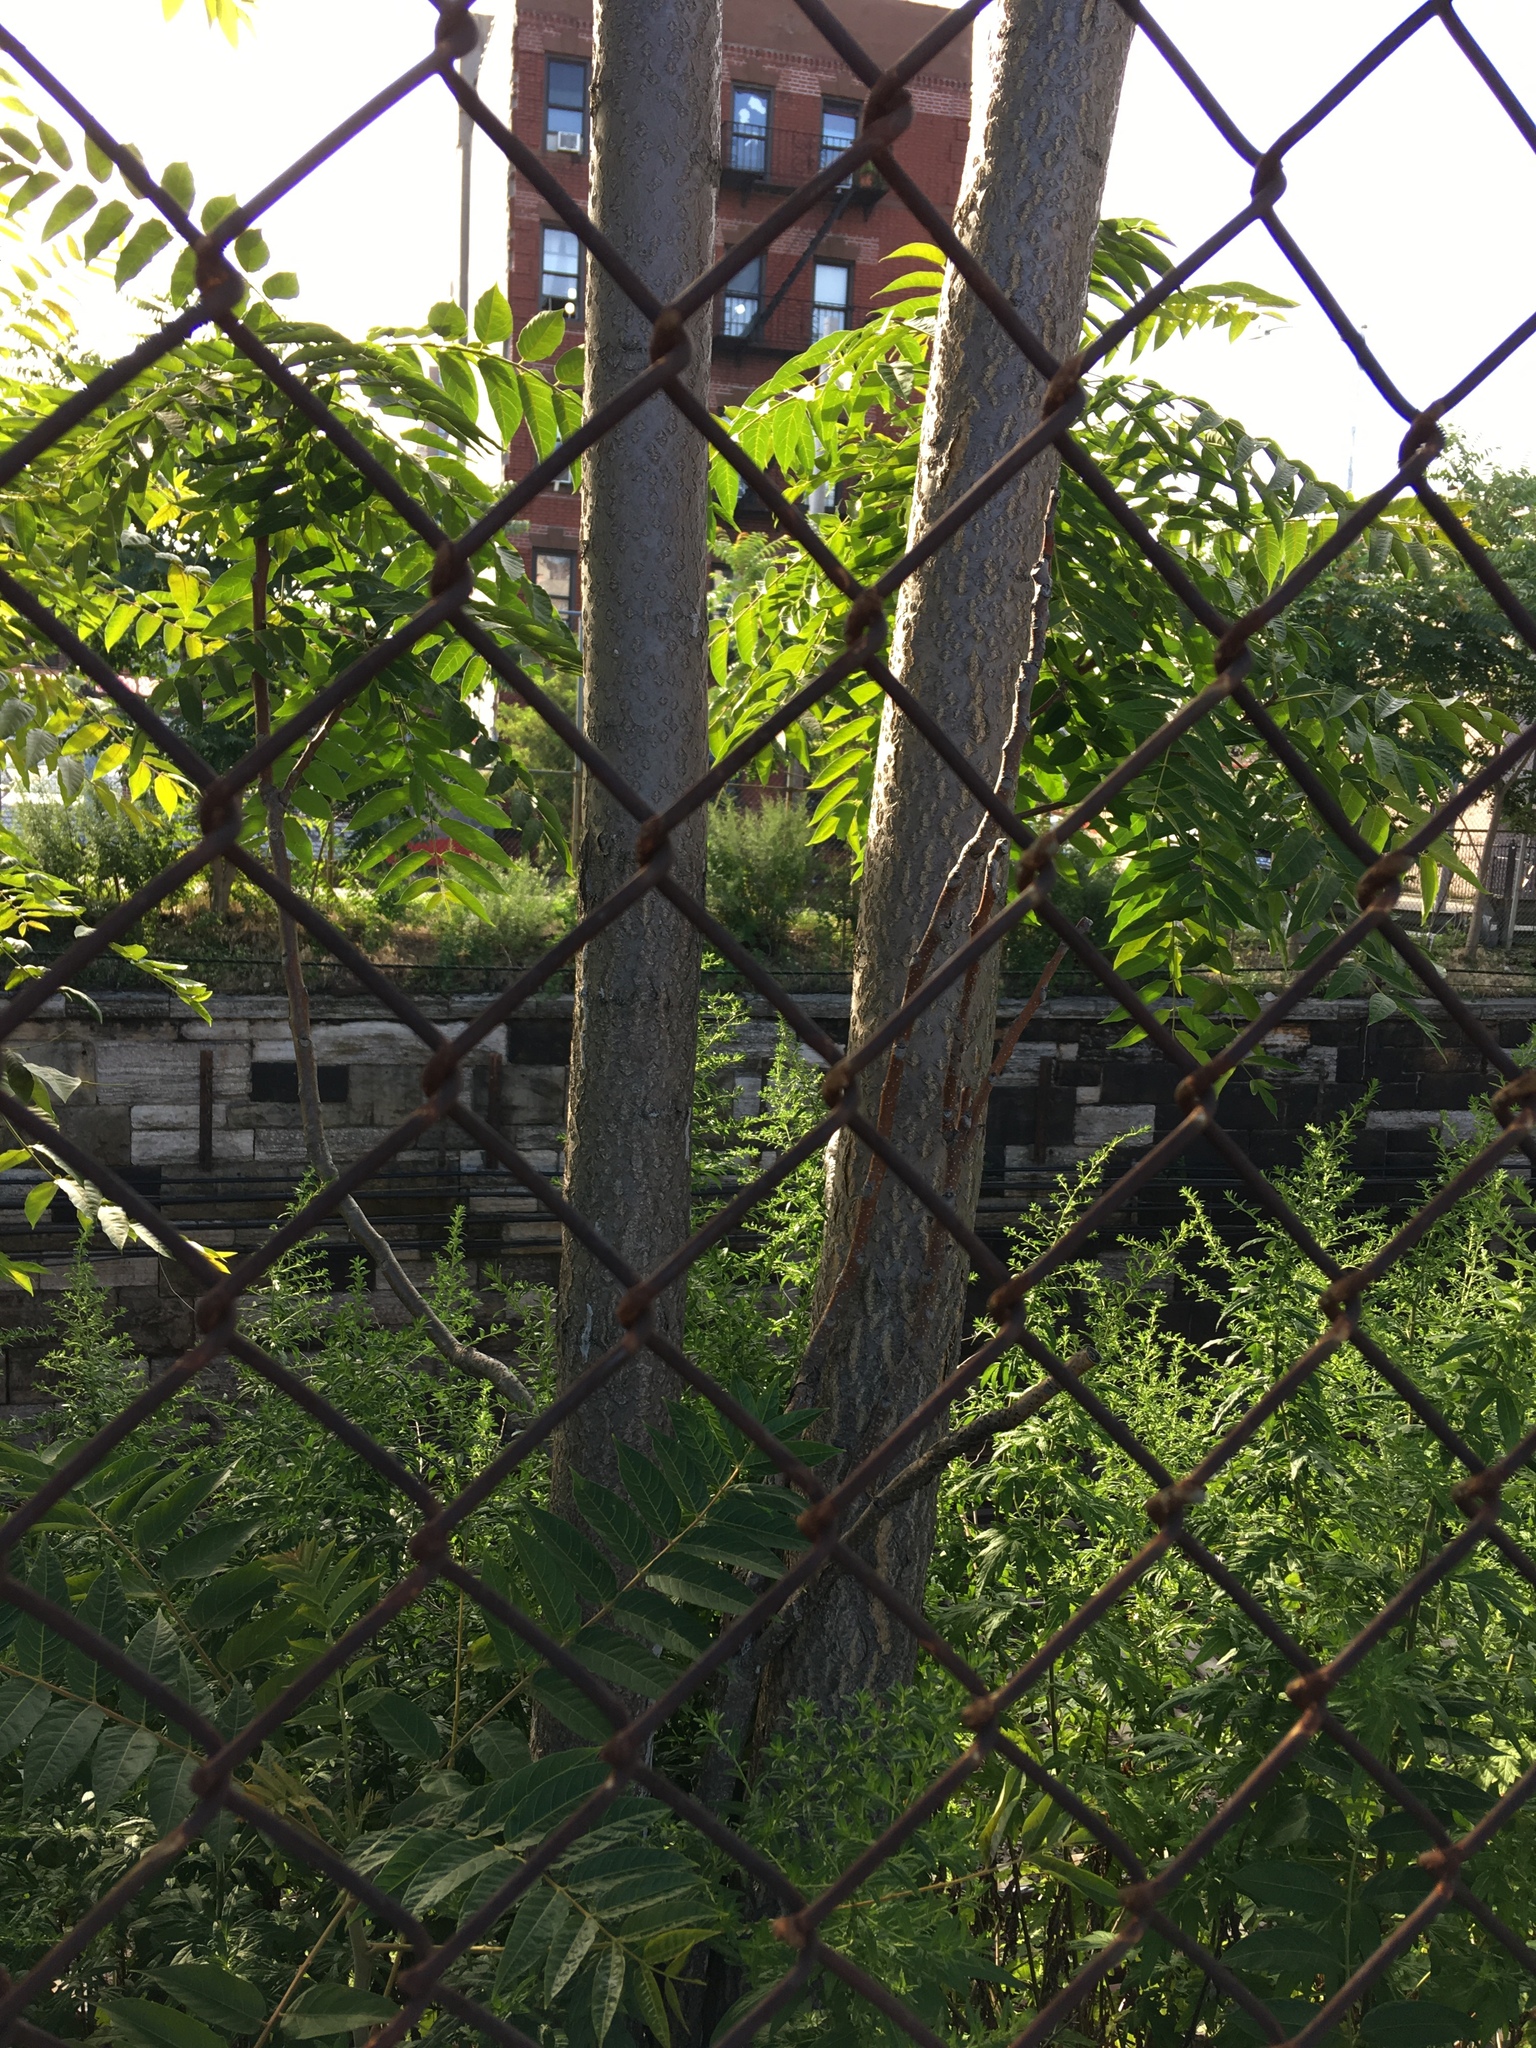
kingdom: Plantae
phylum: Tracheophyta
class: Magnoliopsida
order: Sapindales
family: Simaroubaceae
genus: Ailanthus
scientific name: Ailanthus altissima
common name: Tree-of-heaven
